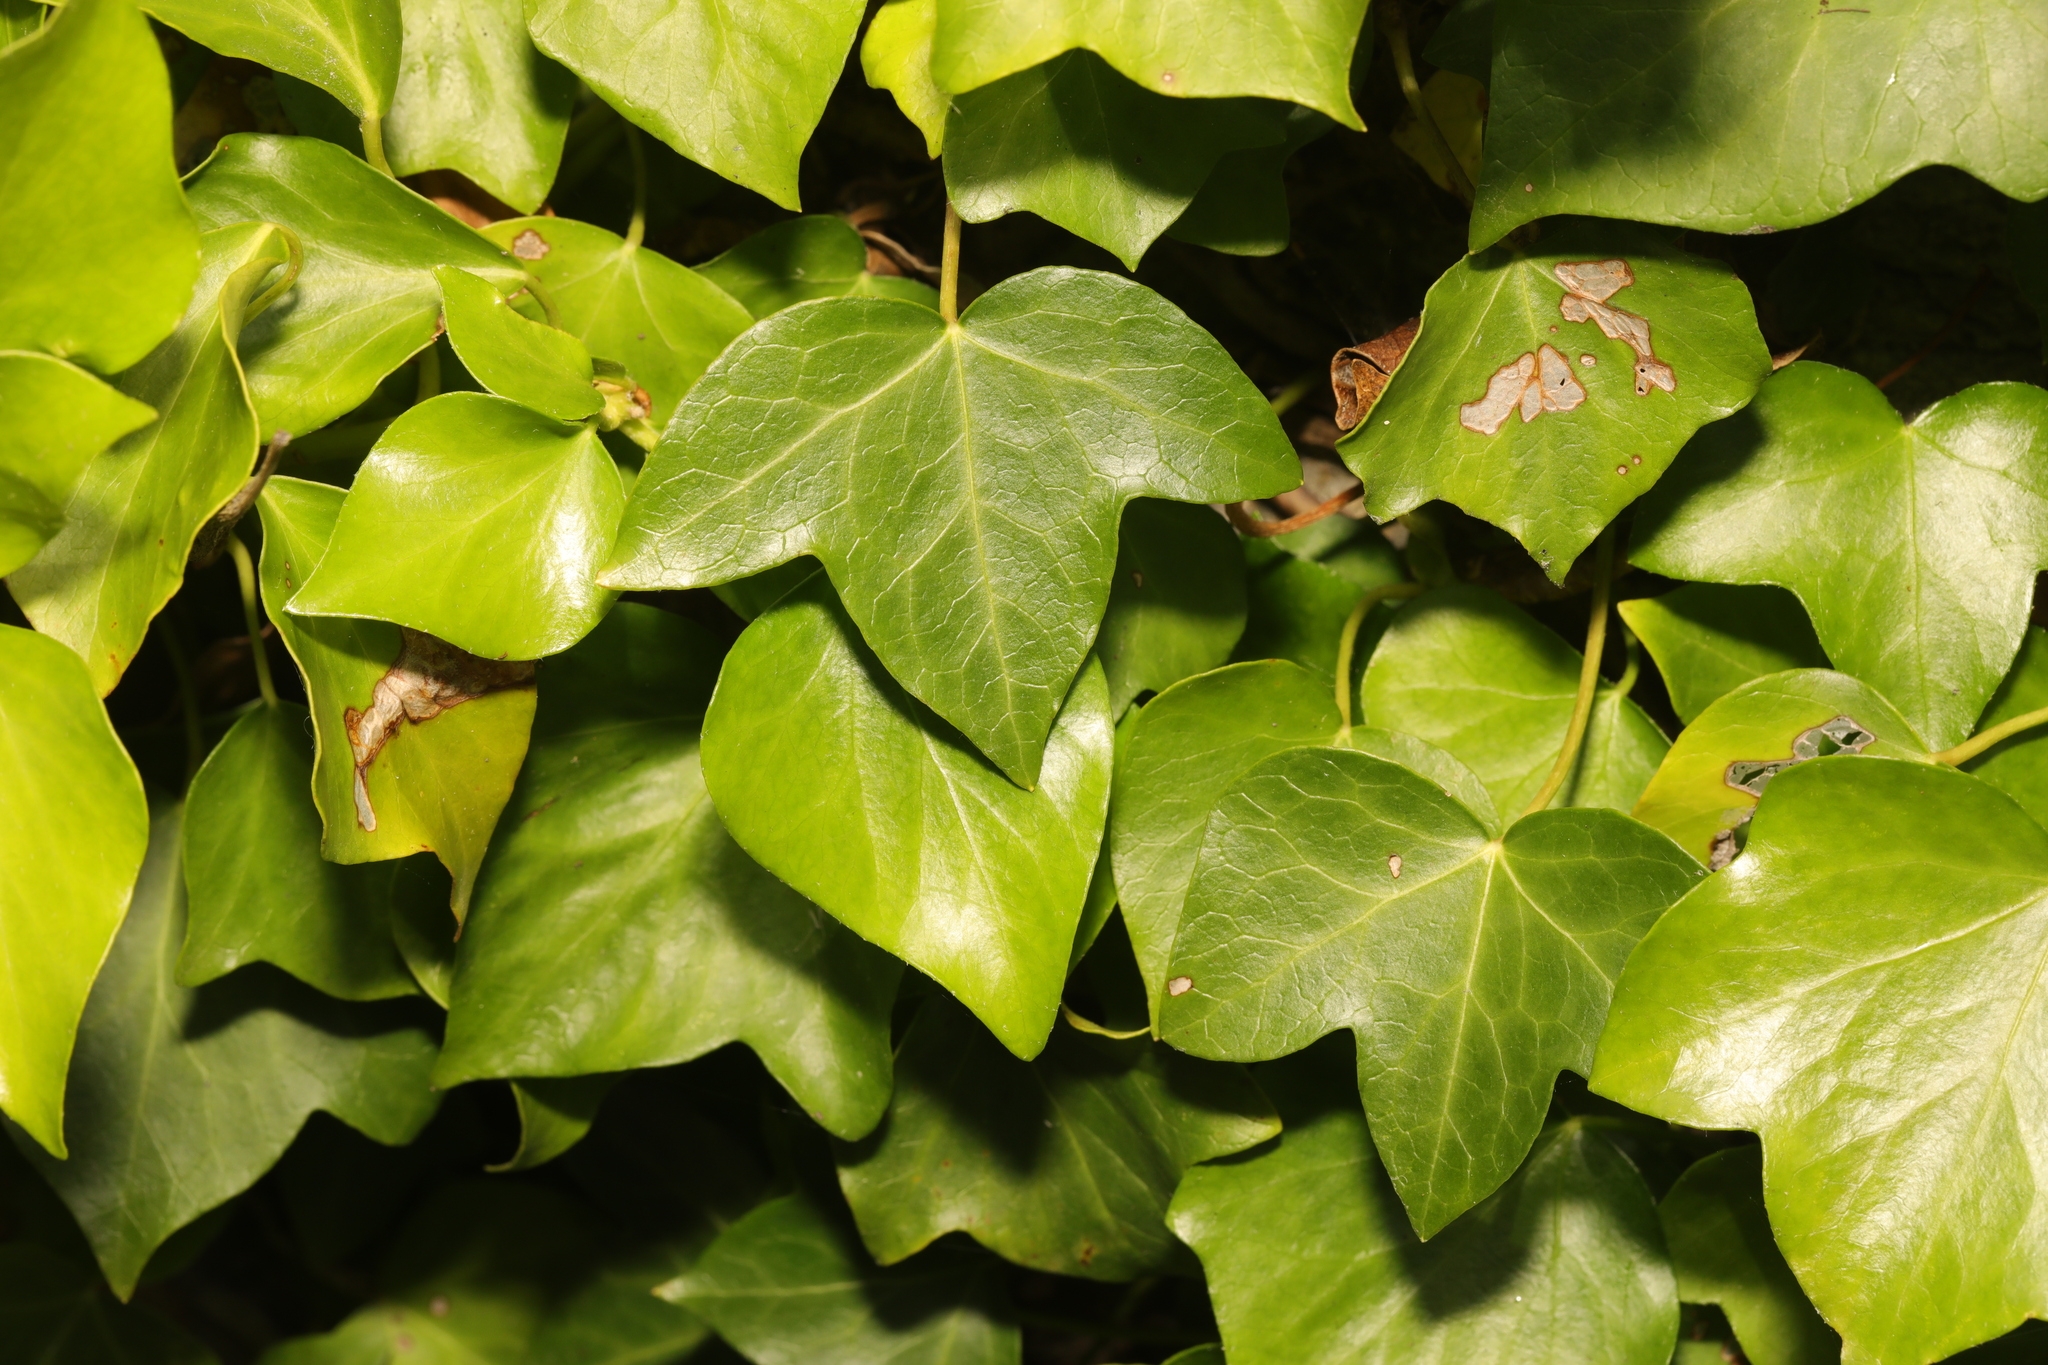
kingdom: Plantae
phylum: Tracheophyta
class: Magnoliopsida
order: Apiales
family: Araliaceae
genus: Hedera
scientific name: Hedera helix
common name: Ivy
